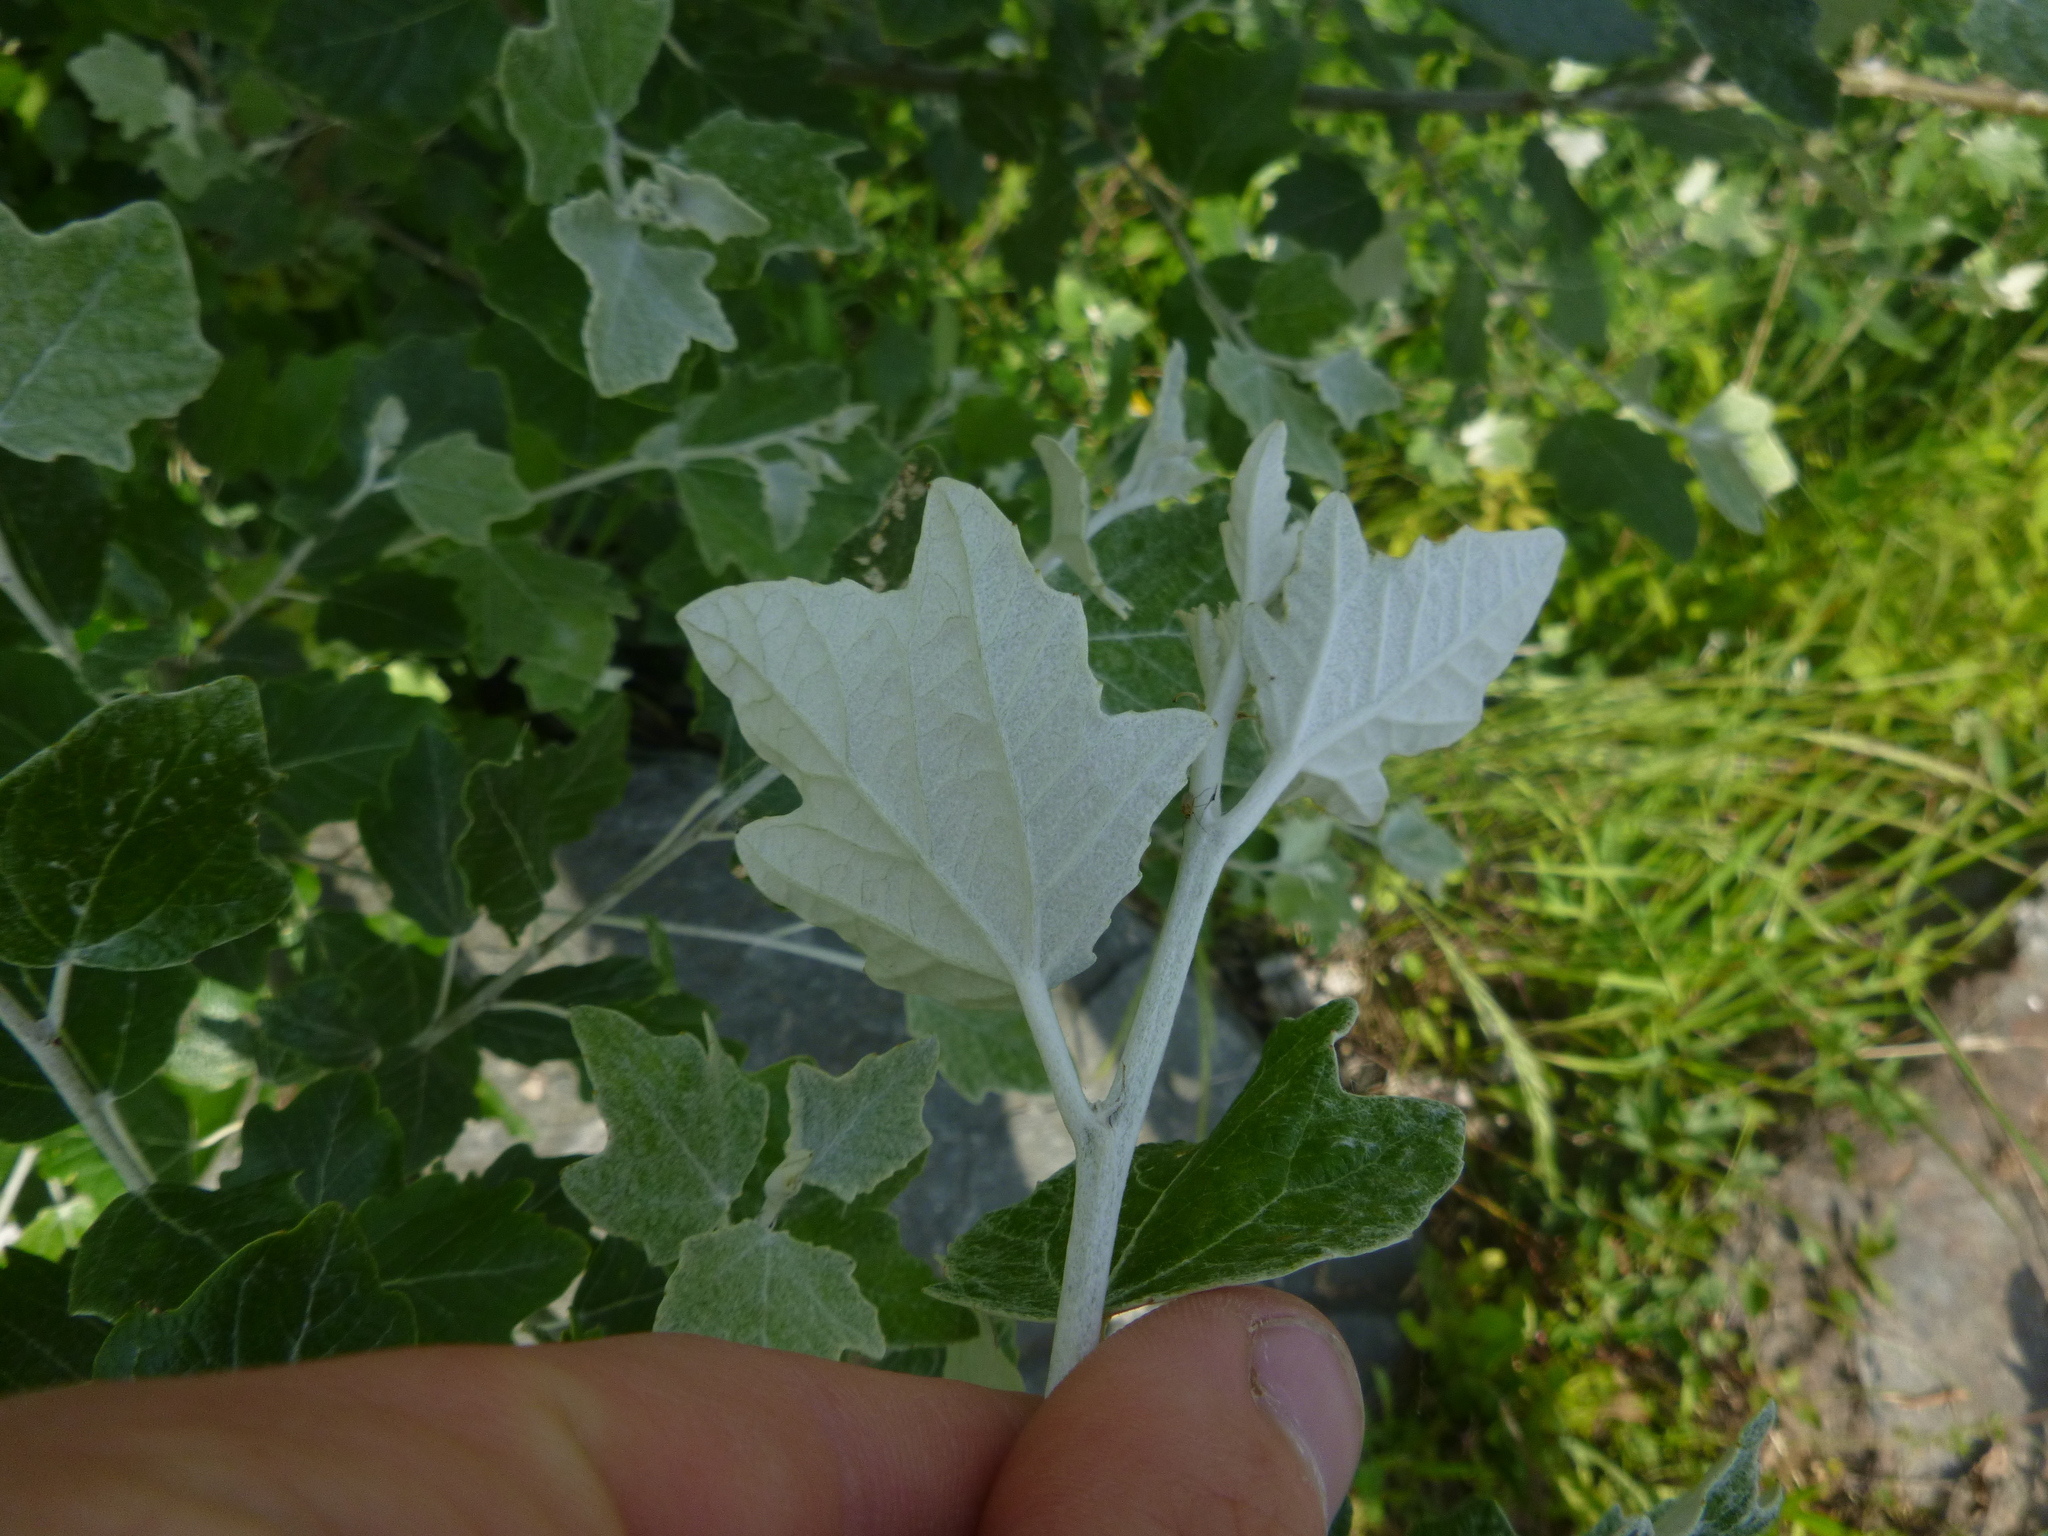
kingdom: Plantae
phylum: Tracheophyta
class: Magnoliopsida
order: Malpighiales
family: Salicaceae
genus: Populus
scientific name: Populus alba
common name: White poplar
